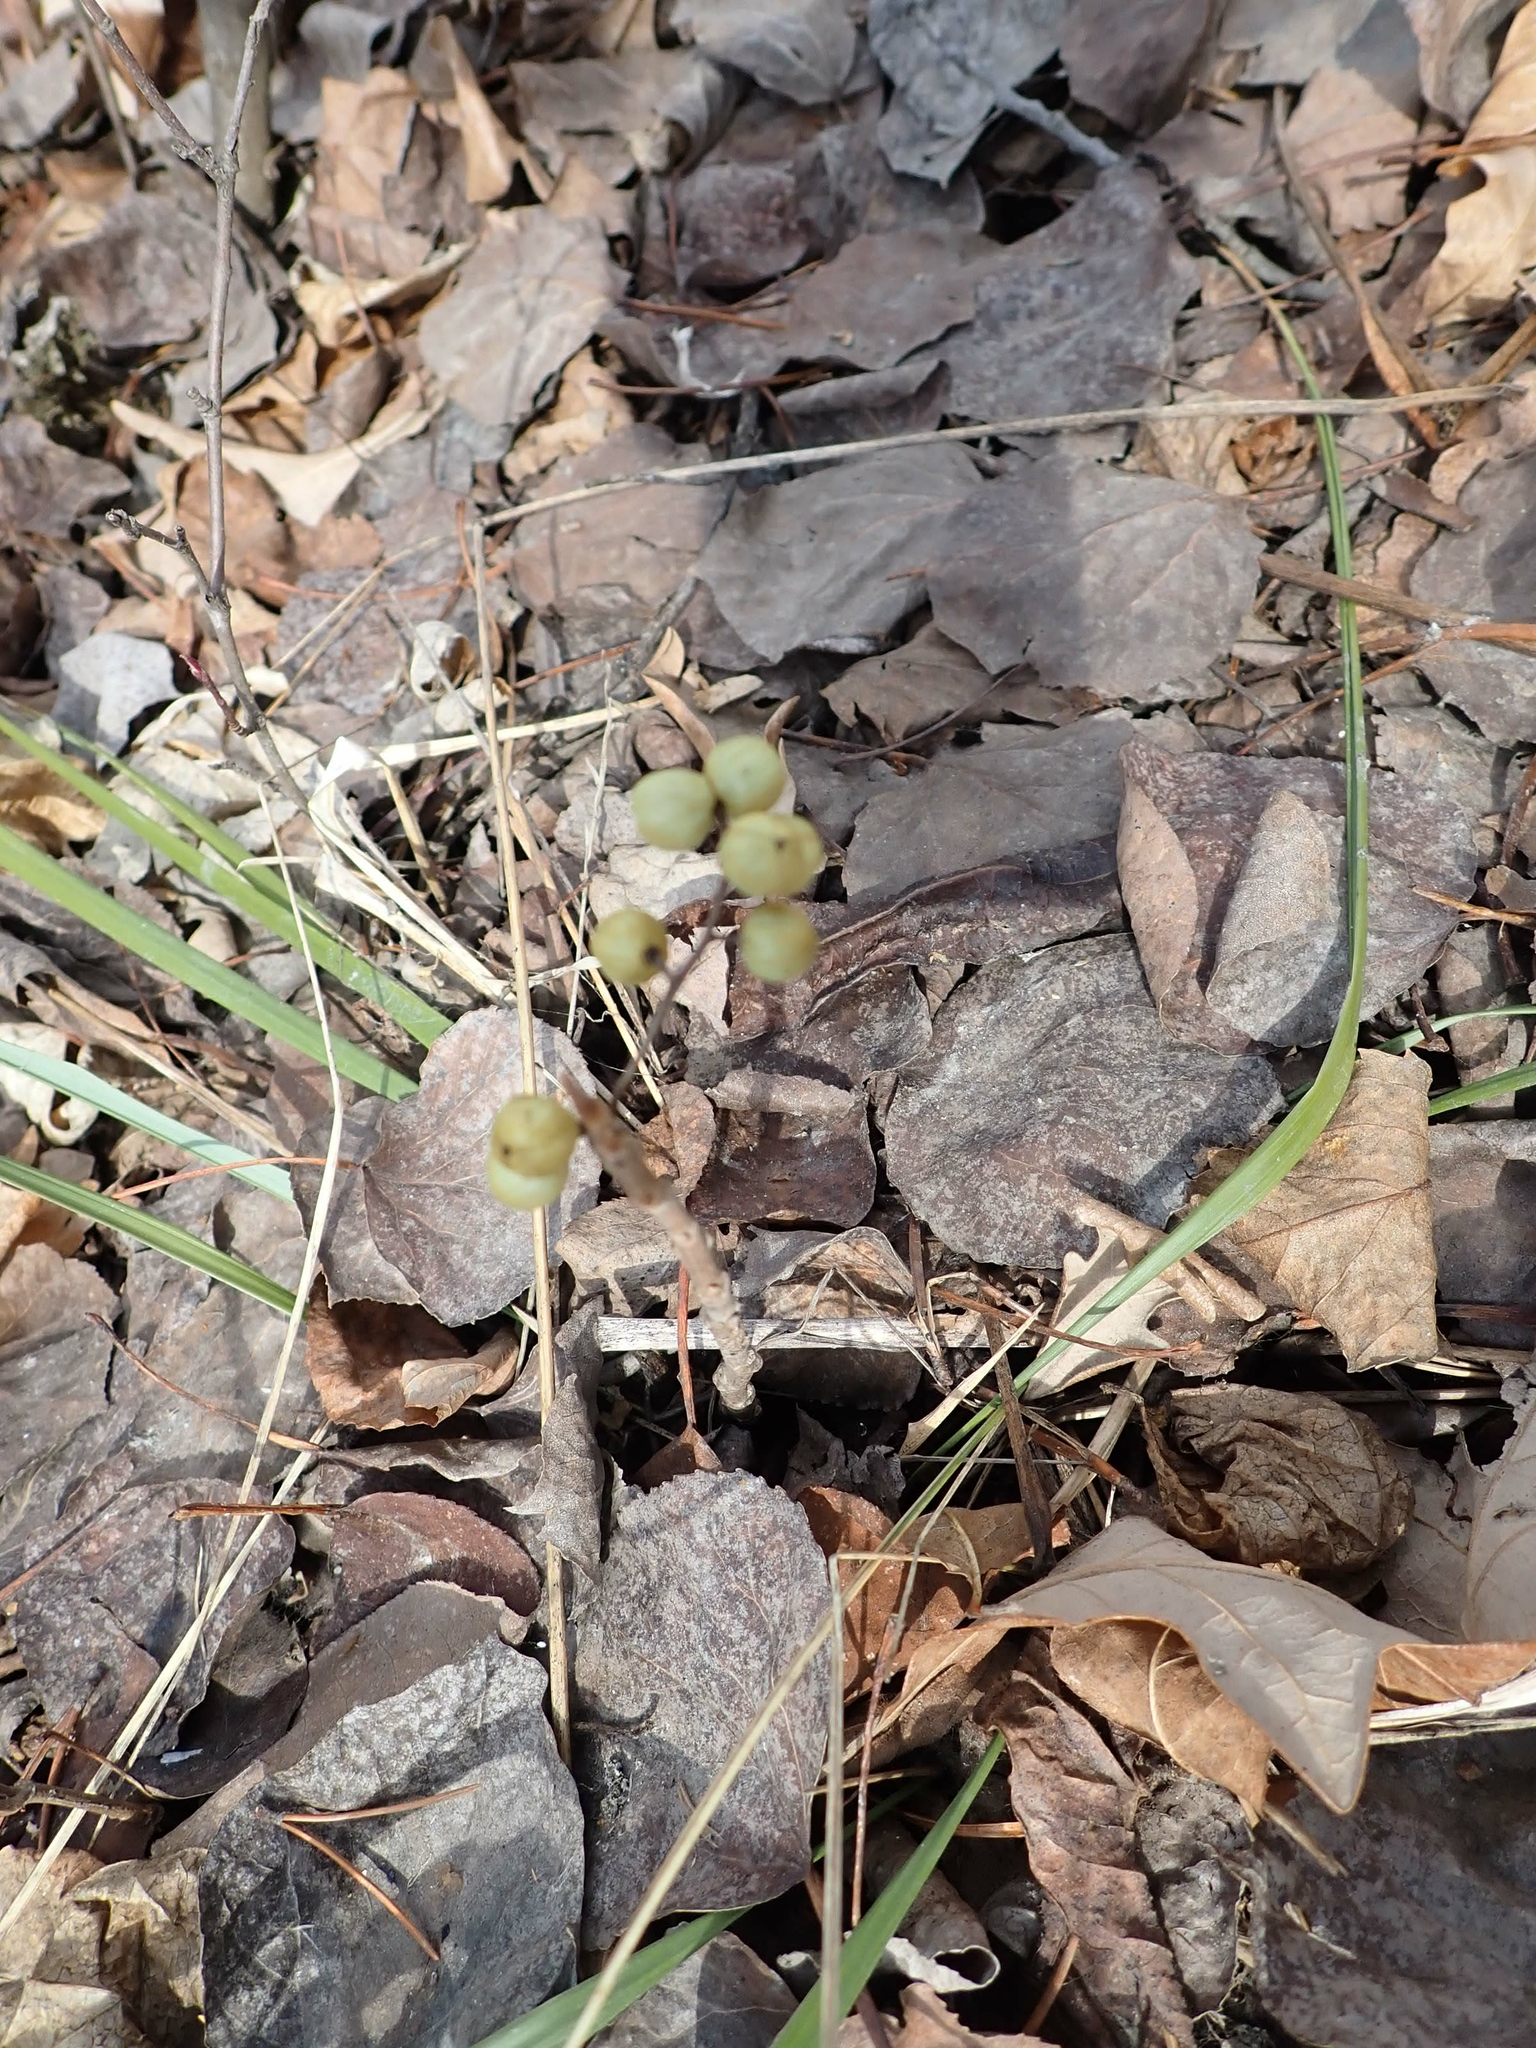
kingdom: Plantae
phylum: Tracheophyta
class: Magnoliopsida
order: Sapindales
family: Anacardiaceae
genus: Toxicodendron
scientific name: Toxicodendron rydbergii
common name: Rydberg's poison-ivy
